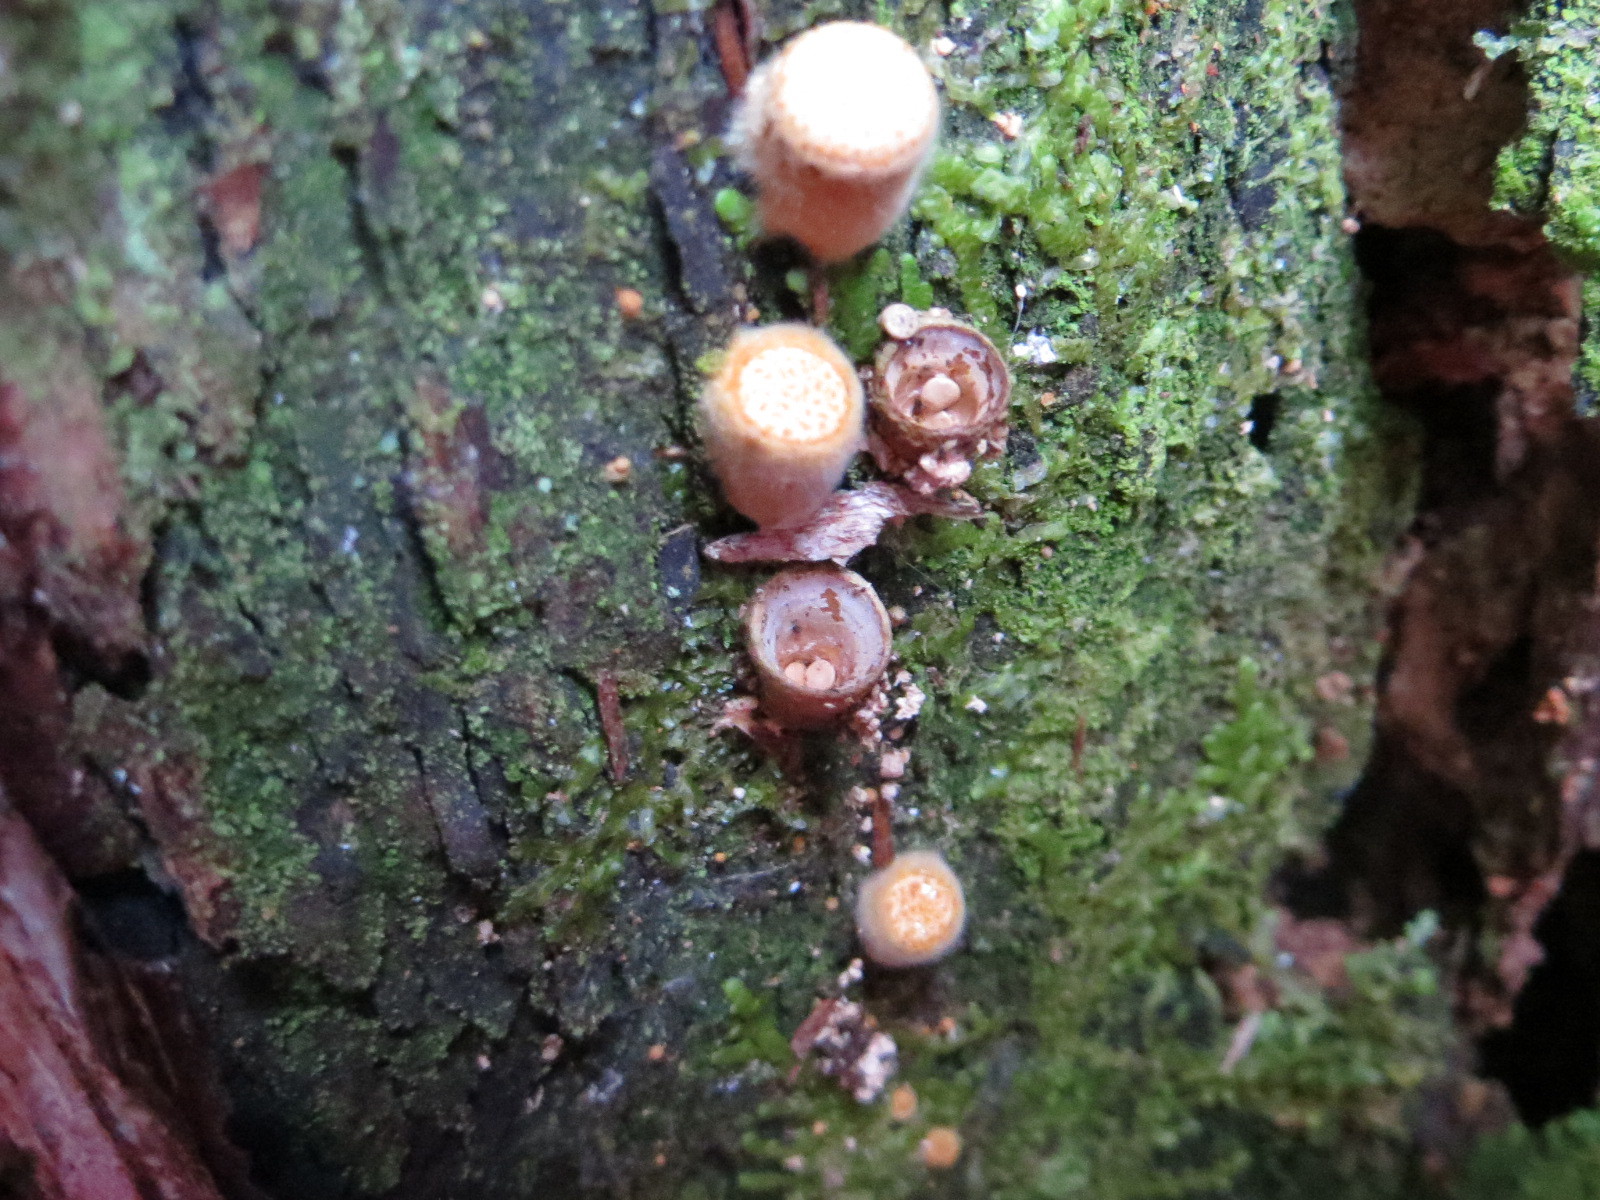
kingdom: Fungi
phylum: Basidiomycota
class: Agaricomycetes
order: Agaricales
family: Nidulariaceae
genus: Crucibulum
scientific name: Crucibulum simile
